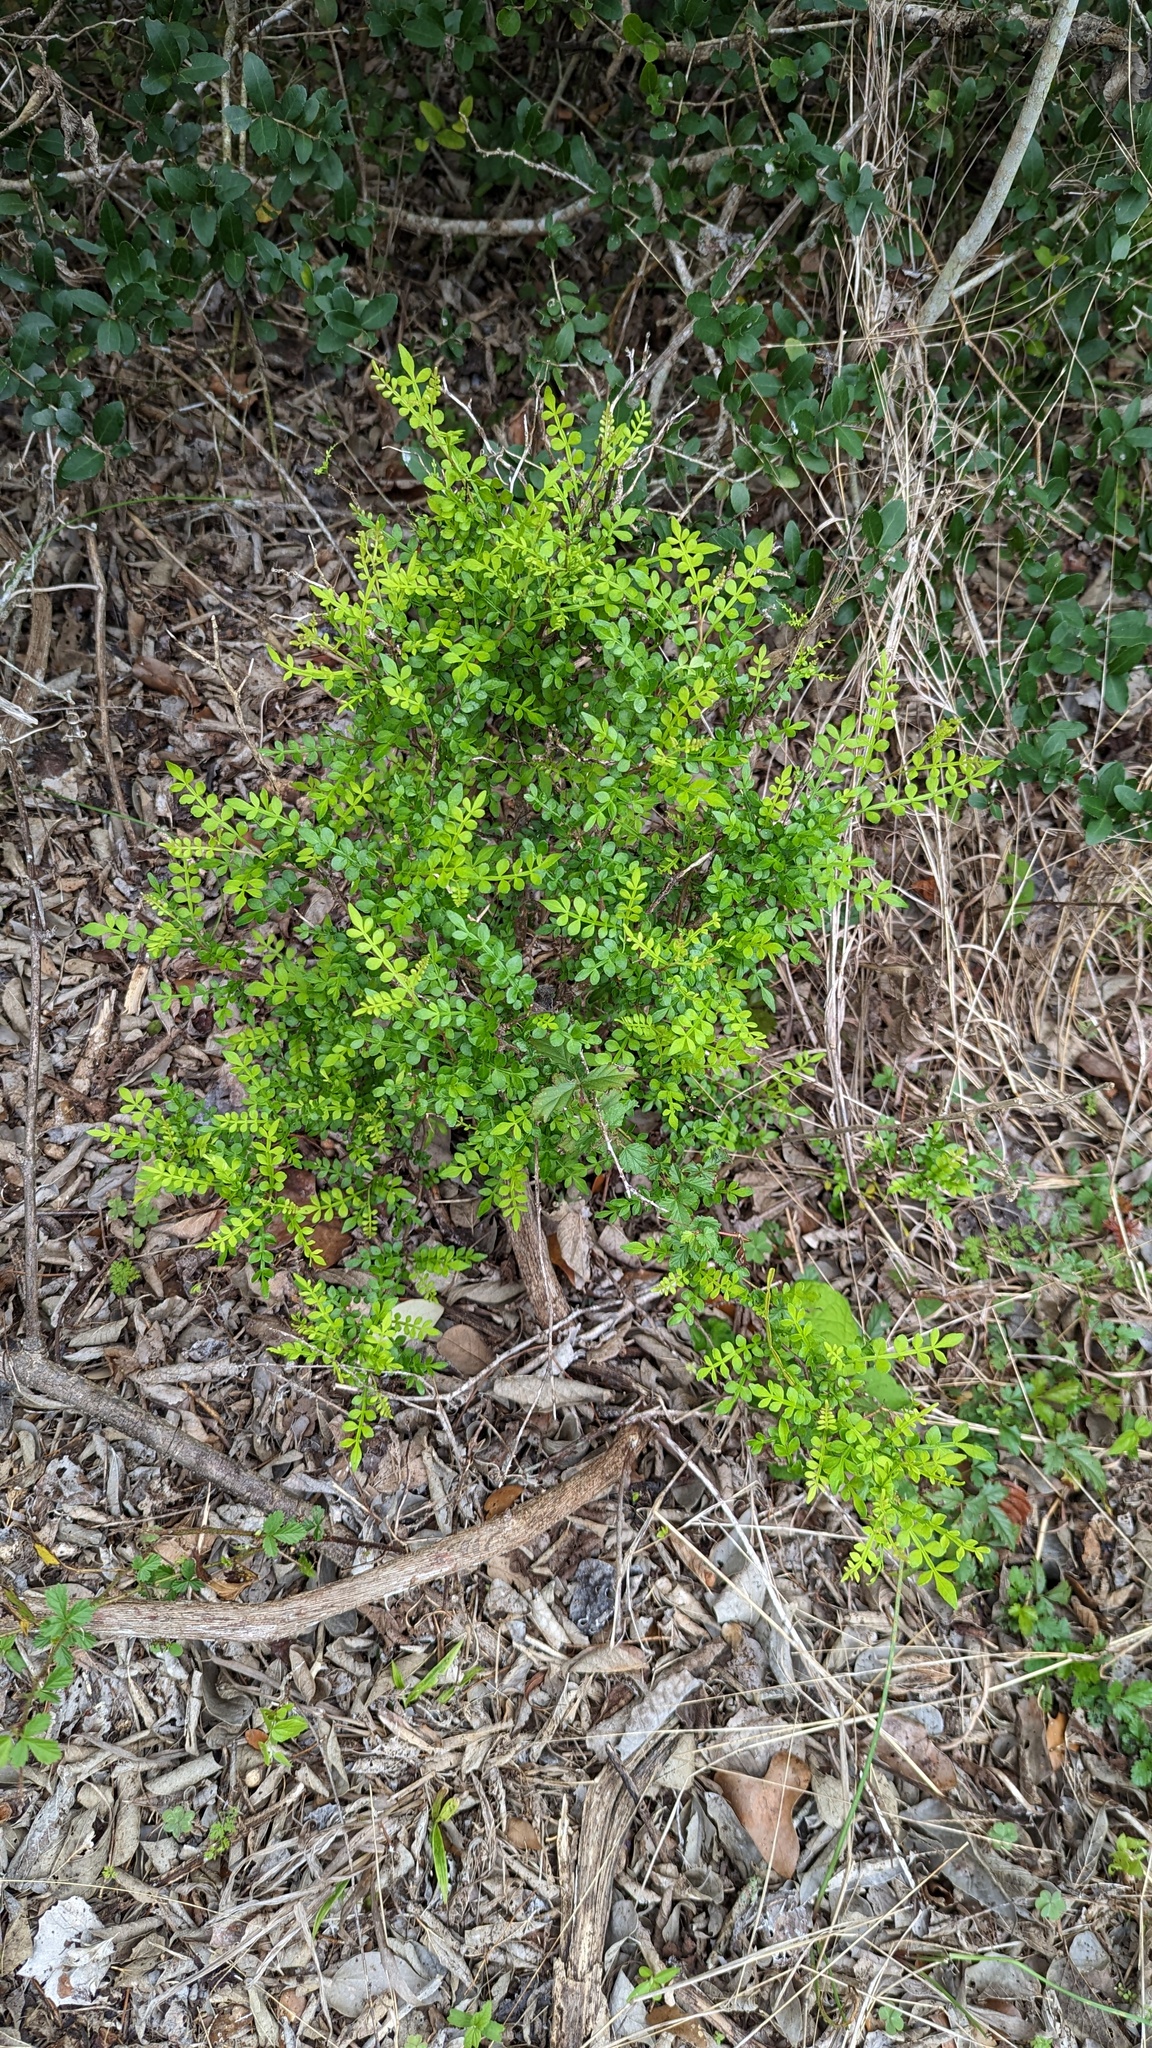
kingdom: Plantae
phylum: Tracheophyta
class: Magnoliopsida
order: Sapindales
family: Rutaceae
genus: Zanthoxylum
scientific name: Zanthoxylum fagara
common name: Lime prickly-ash
